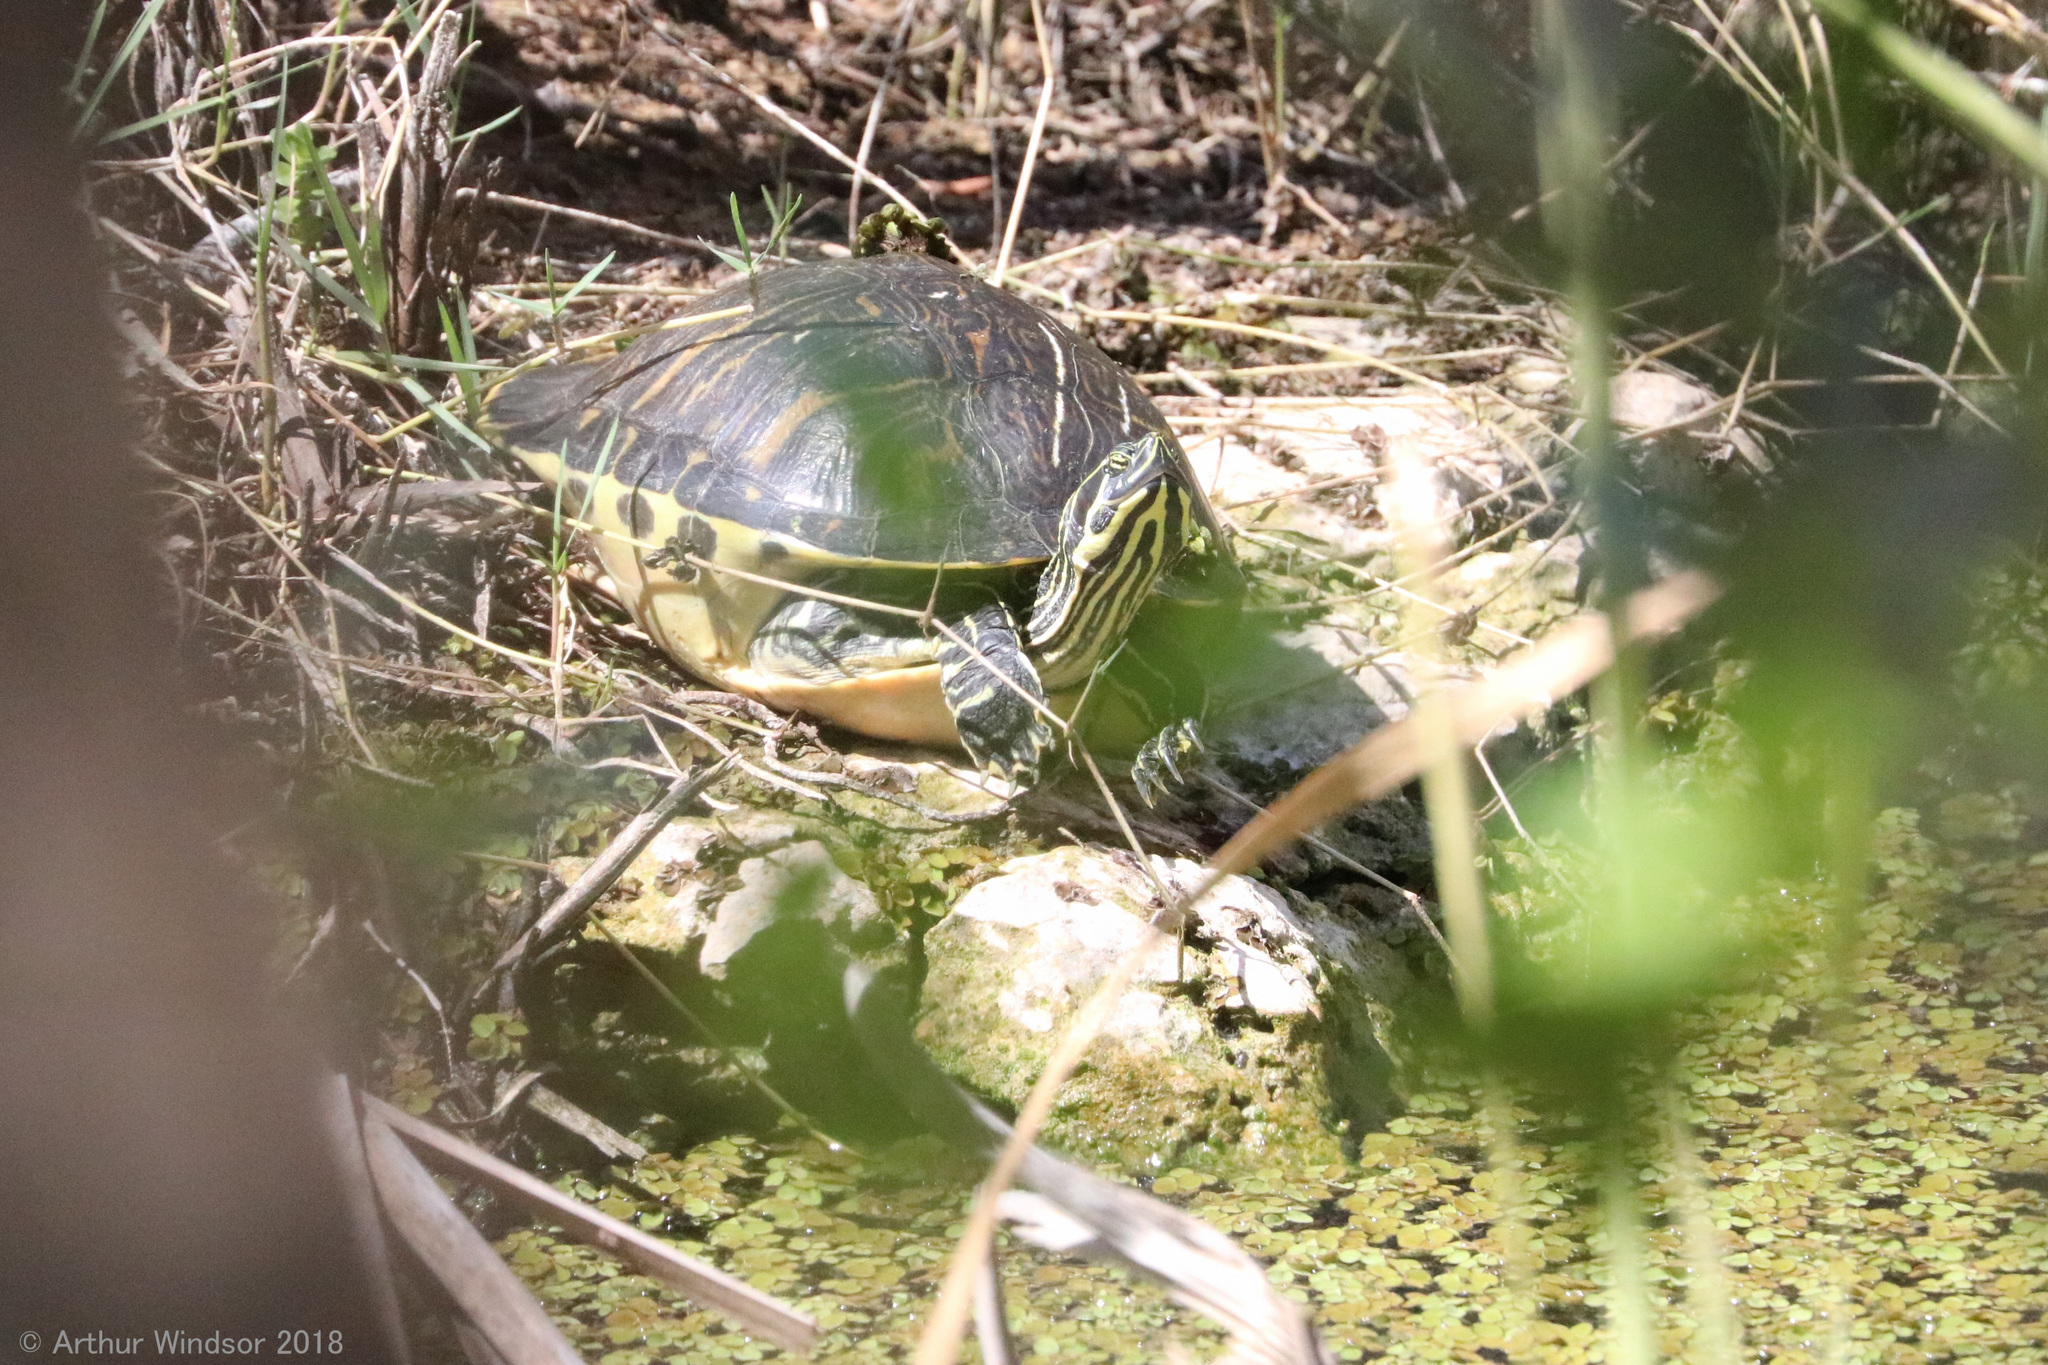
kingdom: Animalia
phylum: Chordata
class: Testudines
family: Emydidae
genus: Pseudemys
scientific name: Pseudemys peninsularis
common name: Peninsula cooter
